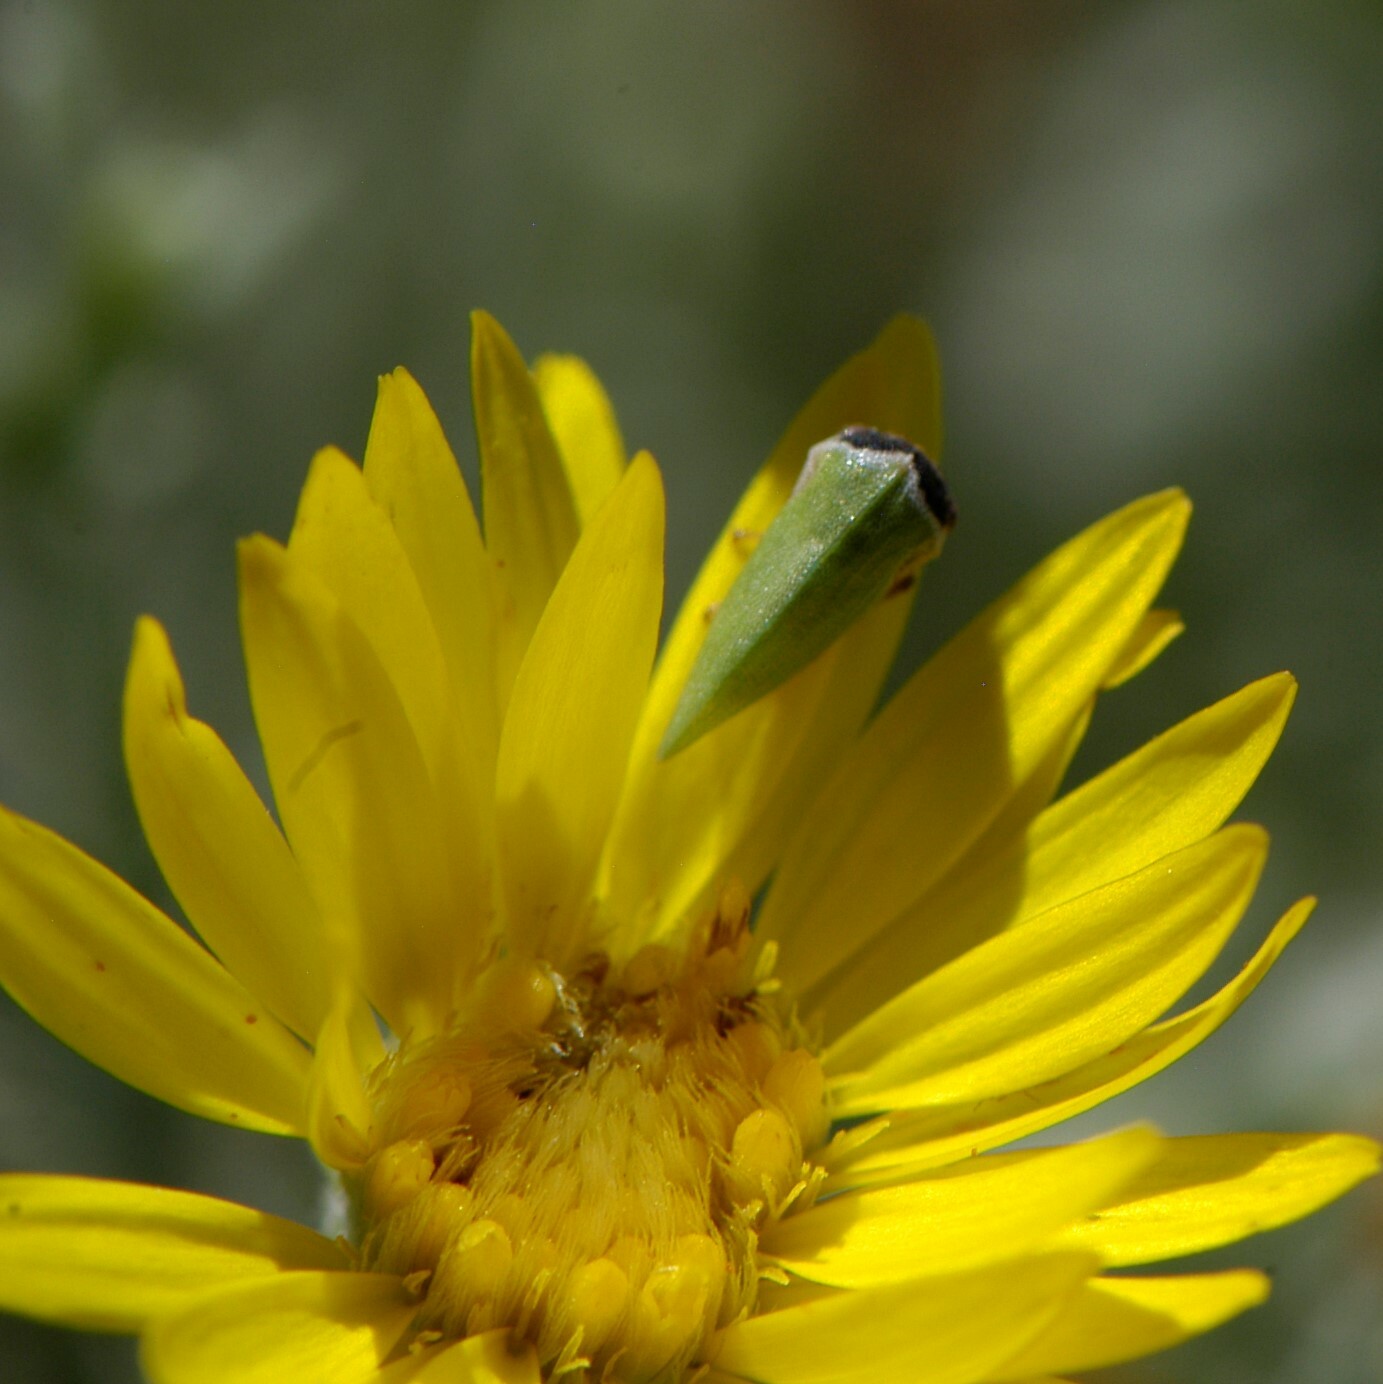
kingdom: Animalia
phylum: Arthropoda
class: Insecta
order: Hemiptera
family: Membracidae
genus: Publilia
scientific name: Publilia modesta
